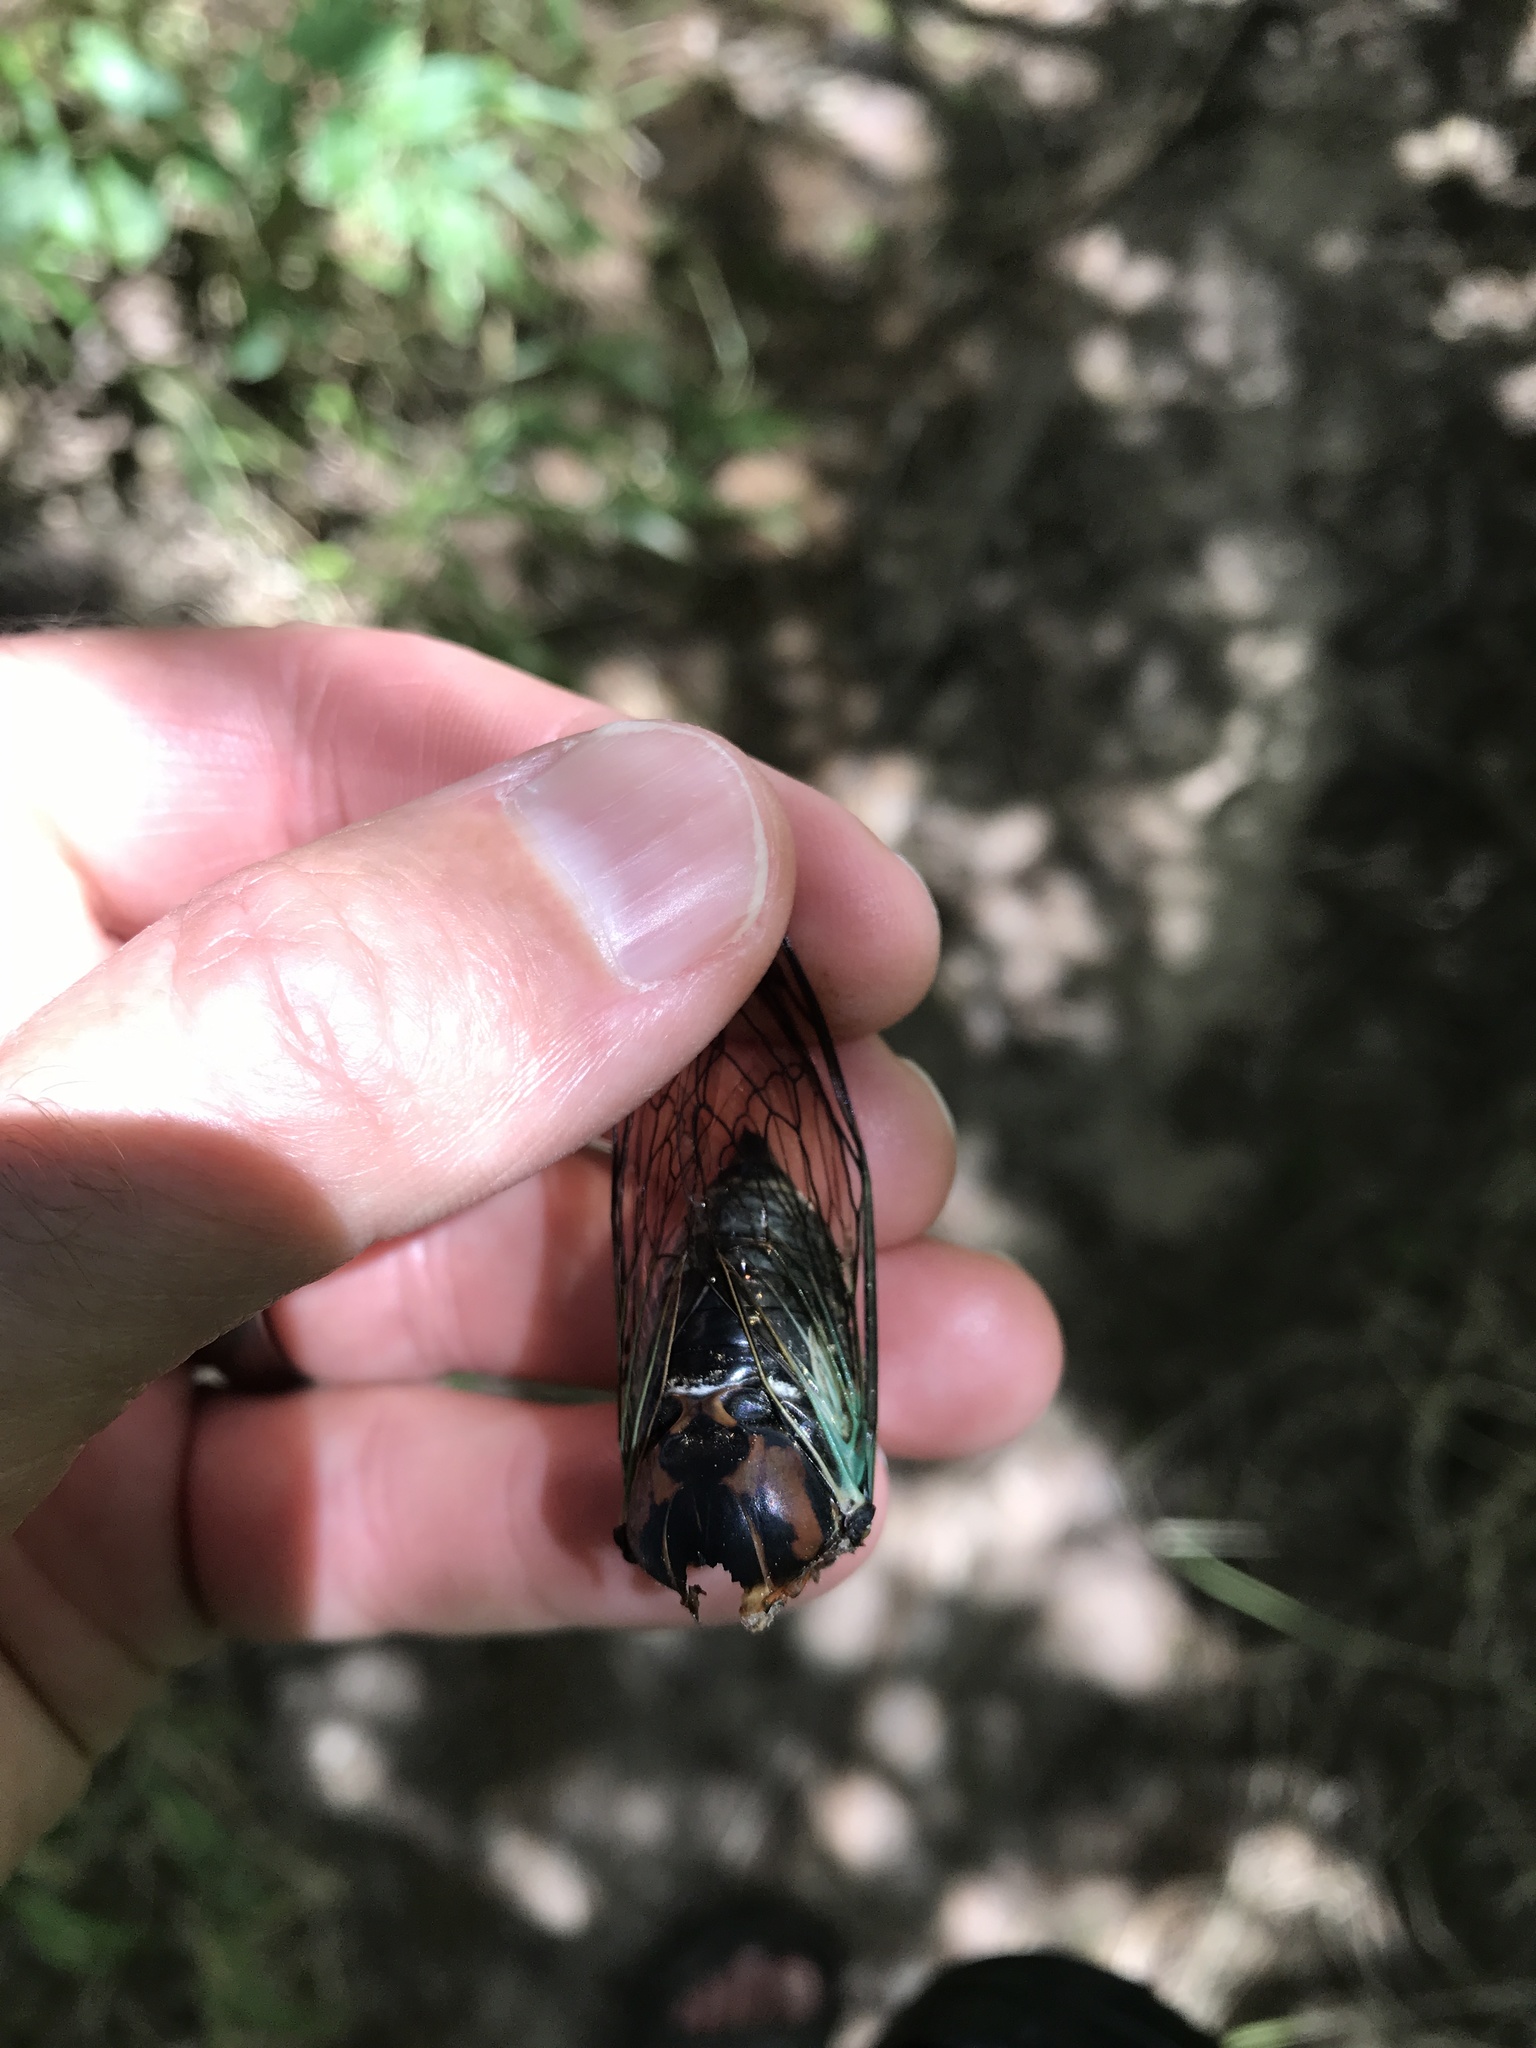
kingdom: Animalia
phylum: Arthropoda
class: Insecta
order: Hemiptera
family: Cicadidae
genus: Neotibicen
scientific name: Neotibicen lyricen
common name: Lyric cicada
